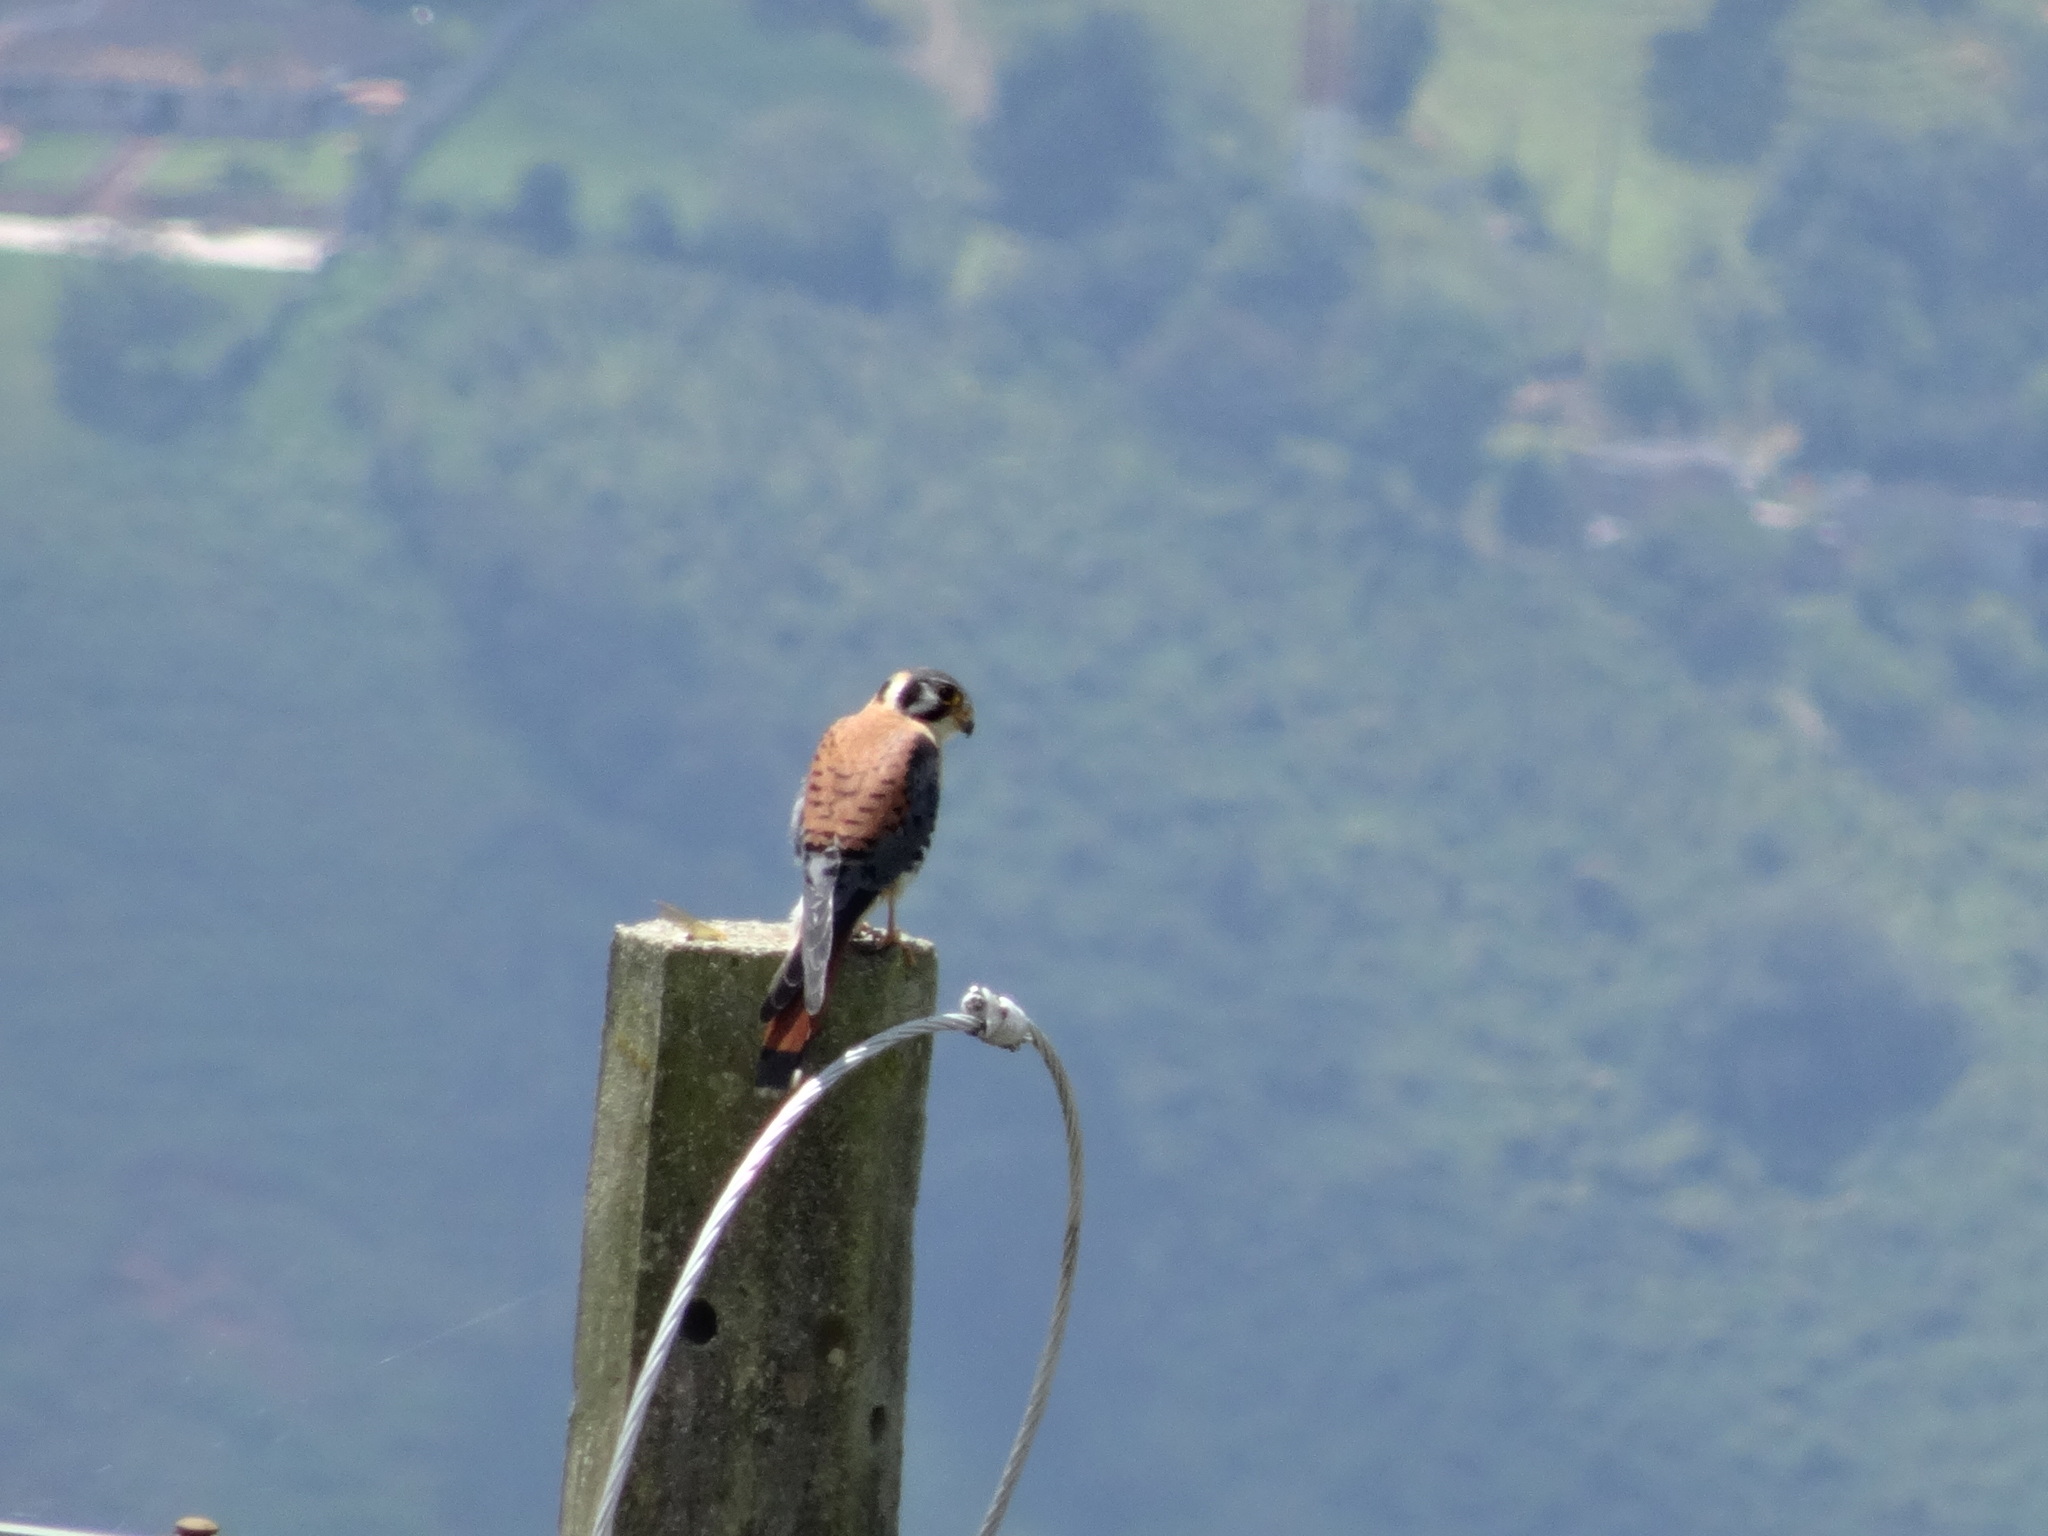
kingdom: Animalia
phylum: Chordata
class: Aves
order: Falconiformes
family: Falconidae
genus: Falco
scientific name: Falco sparverius
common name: American kestrel
